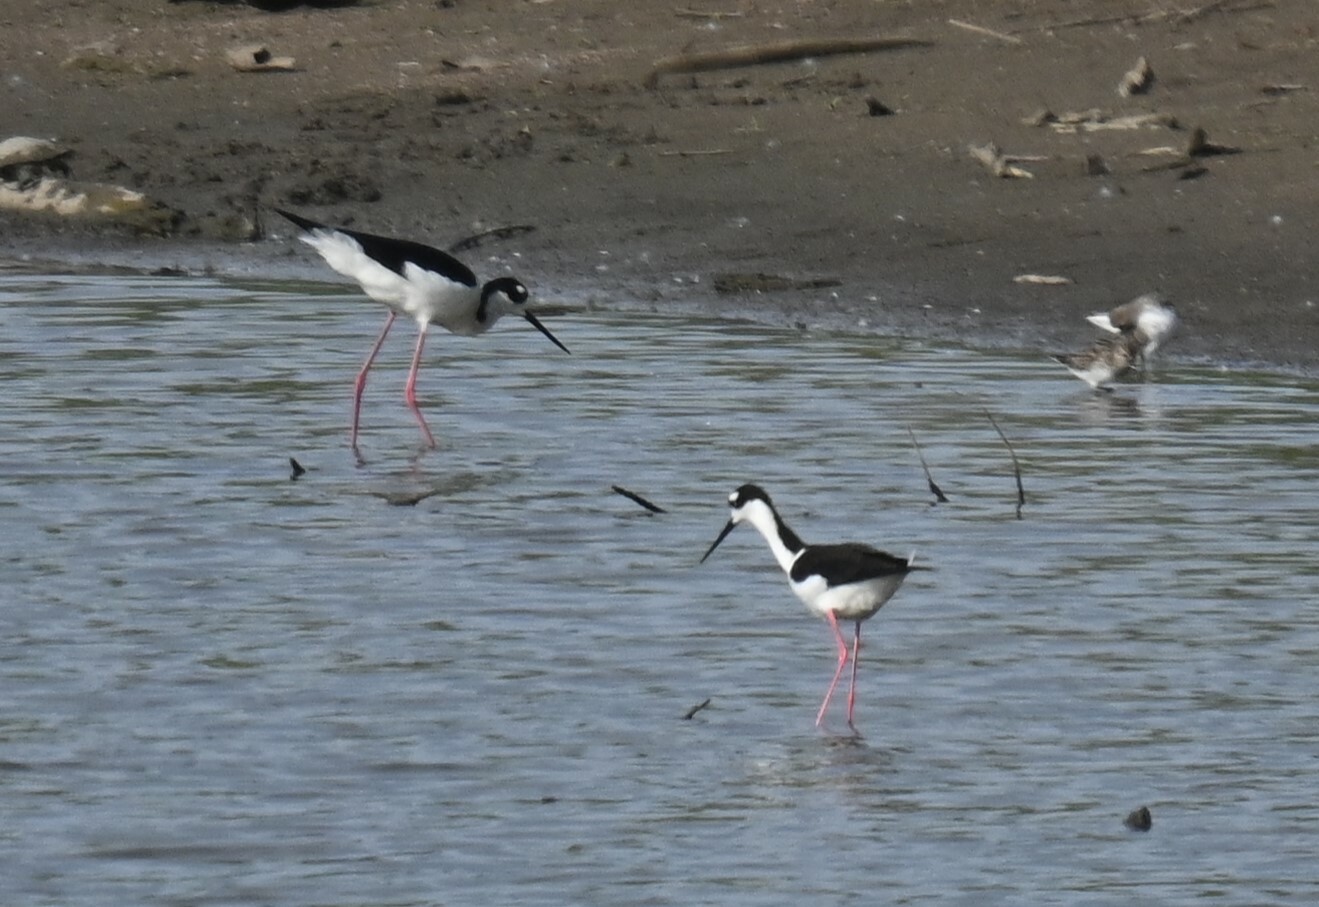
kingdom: Animalia
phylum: Chordata
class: Aves
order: Charadriiformes
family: Recurvirostridae
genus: Himantopus
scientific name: Himantopus mexicanus
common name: Black-necked stilt
